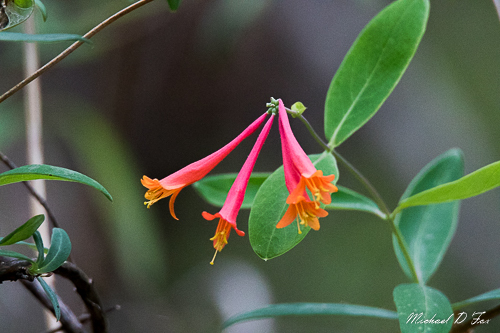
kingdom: Plantae
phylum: Tracheophyta
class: Magnoliopsida
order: Dipsacales
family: Caprifoliaceae
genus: Lonicera
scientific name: Lonicera sempervirens
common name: Coral honeysuckle
